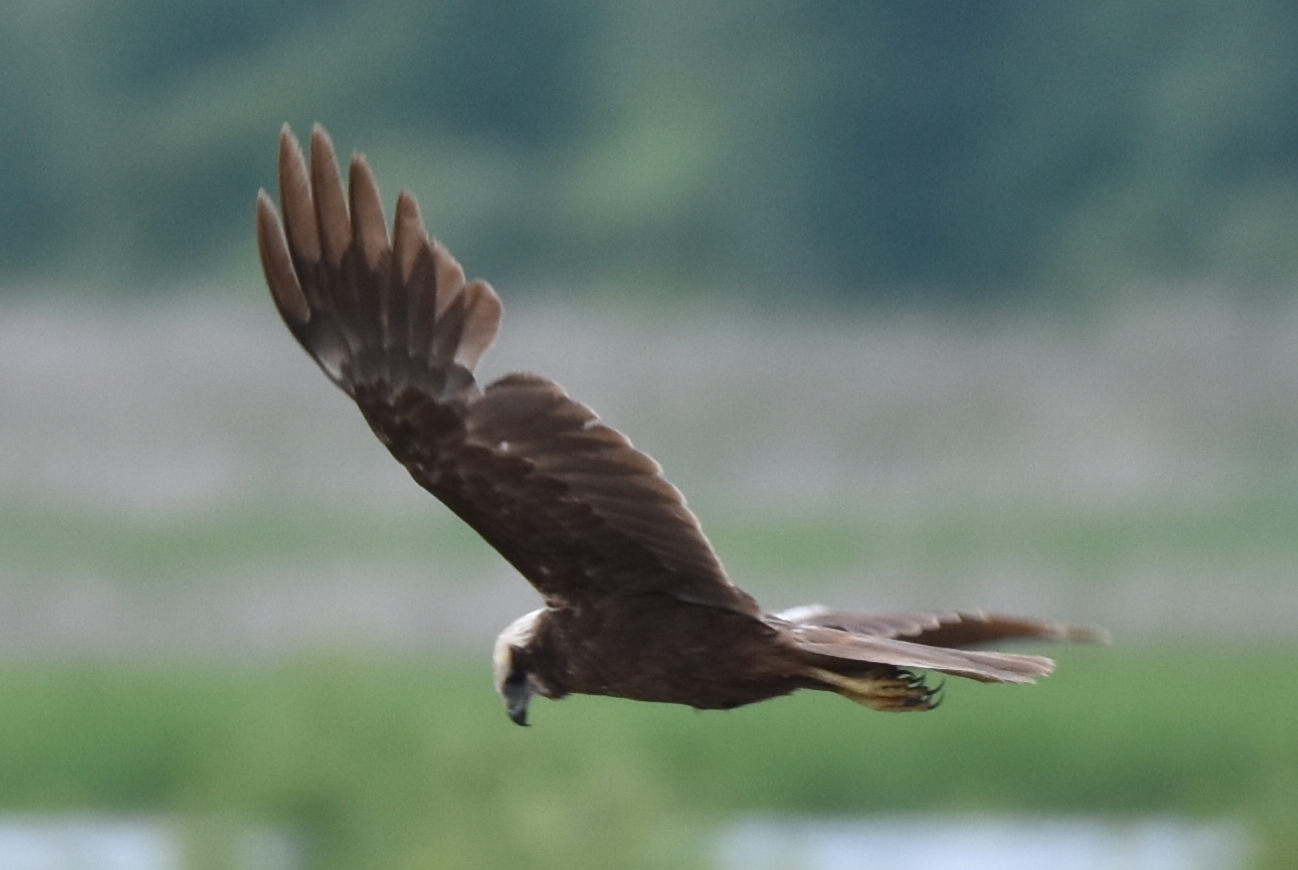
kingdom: Animalia
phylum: Chordata
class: Aves
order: Accipitriformes
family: Accipitridae
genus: Circus
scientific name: Circus aeruginosus
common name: Western marsh harrier
